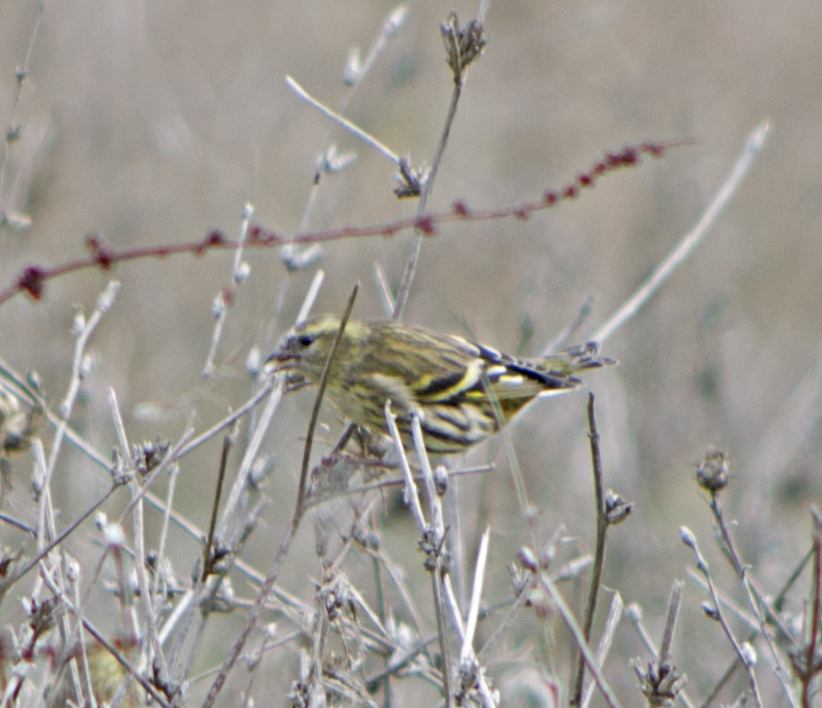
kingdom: Animalia
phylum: Chordata
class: Aves
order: Passeriformes
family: Fringillidae
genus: Spinus
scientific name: Spinus spinus
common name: Eurasian siskin
